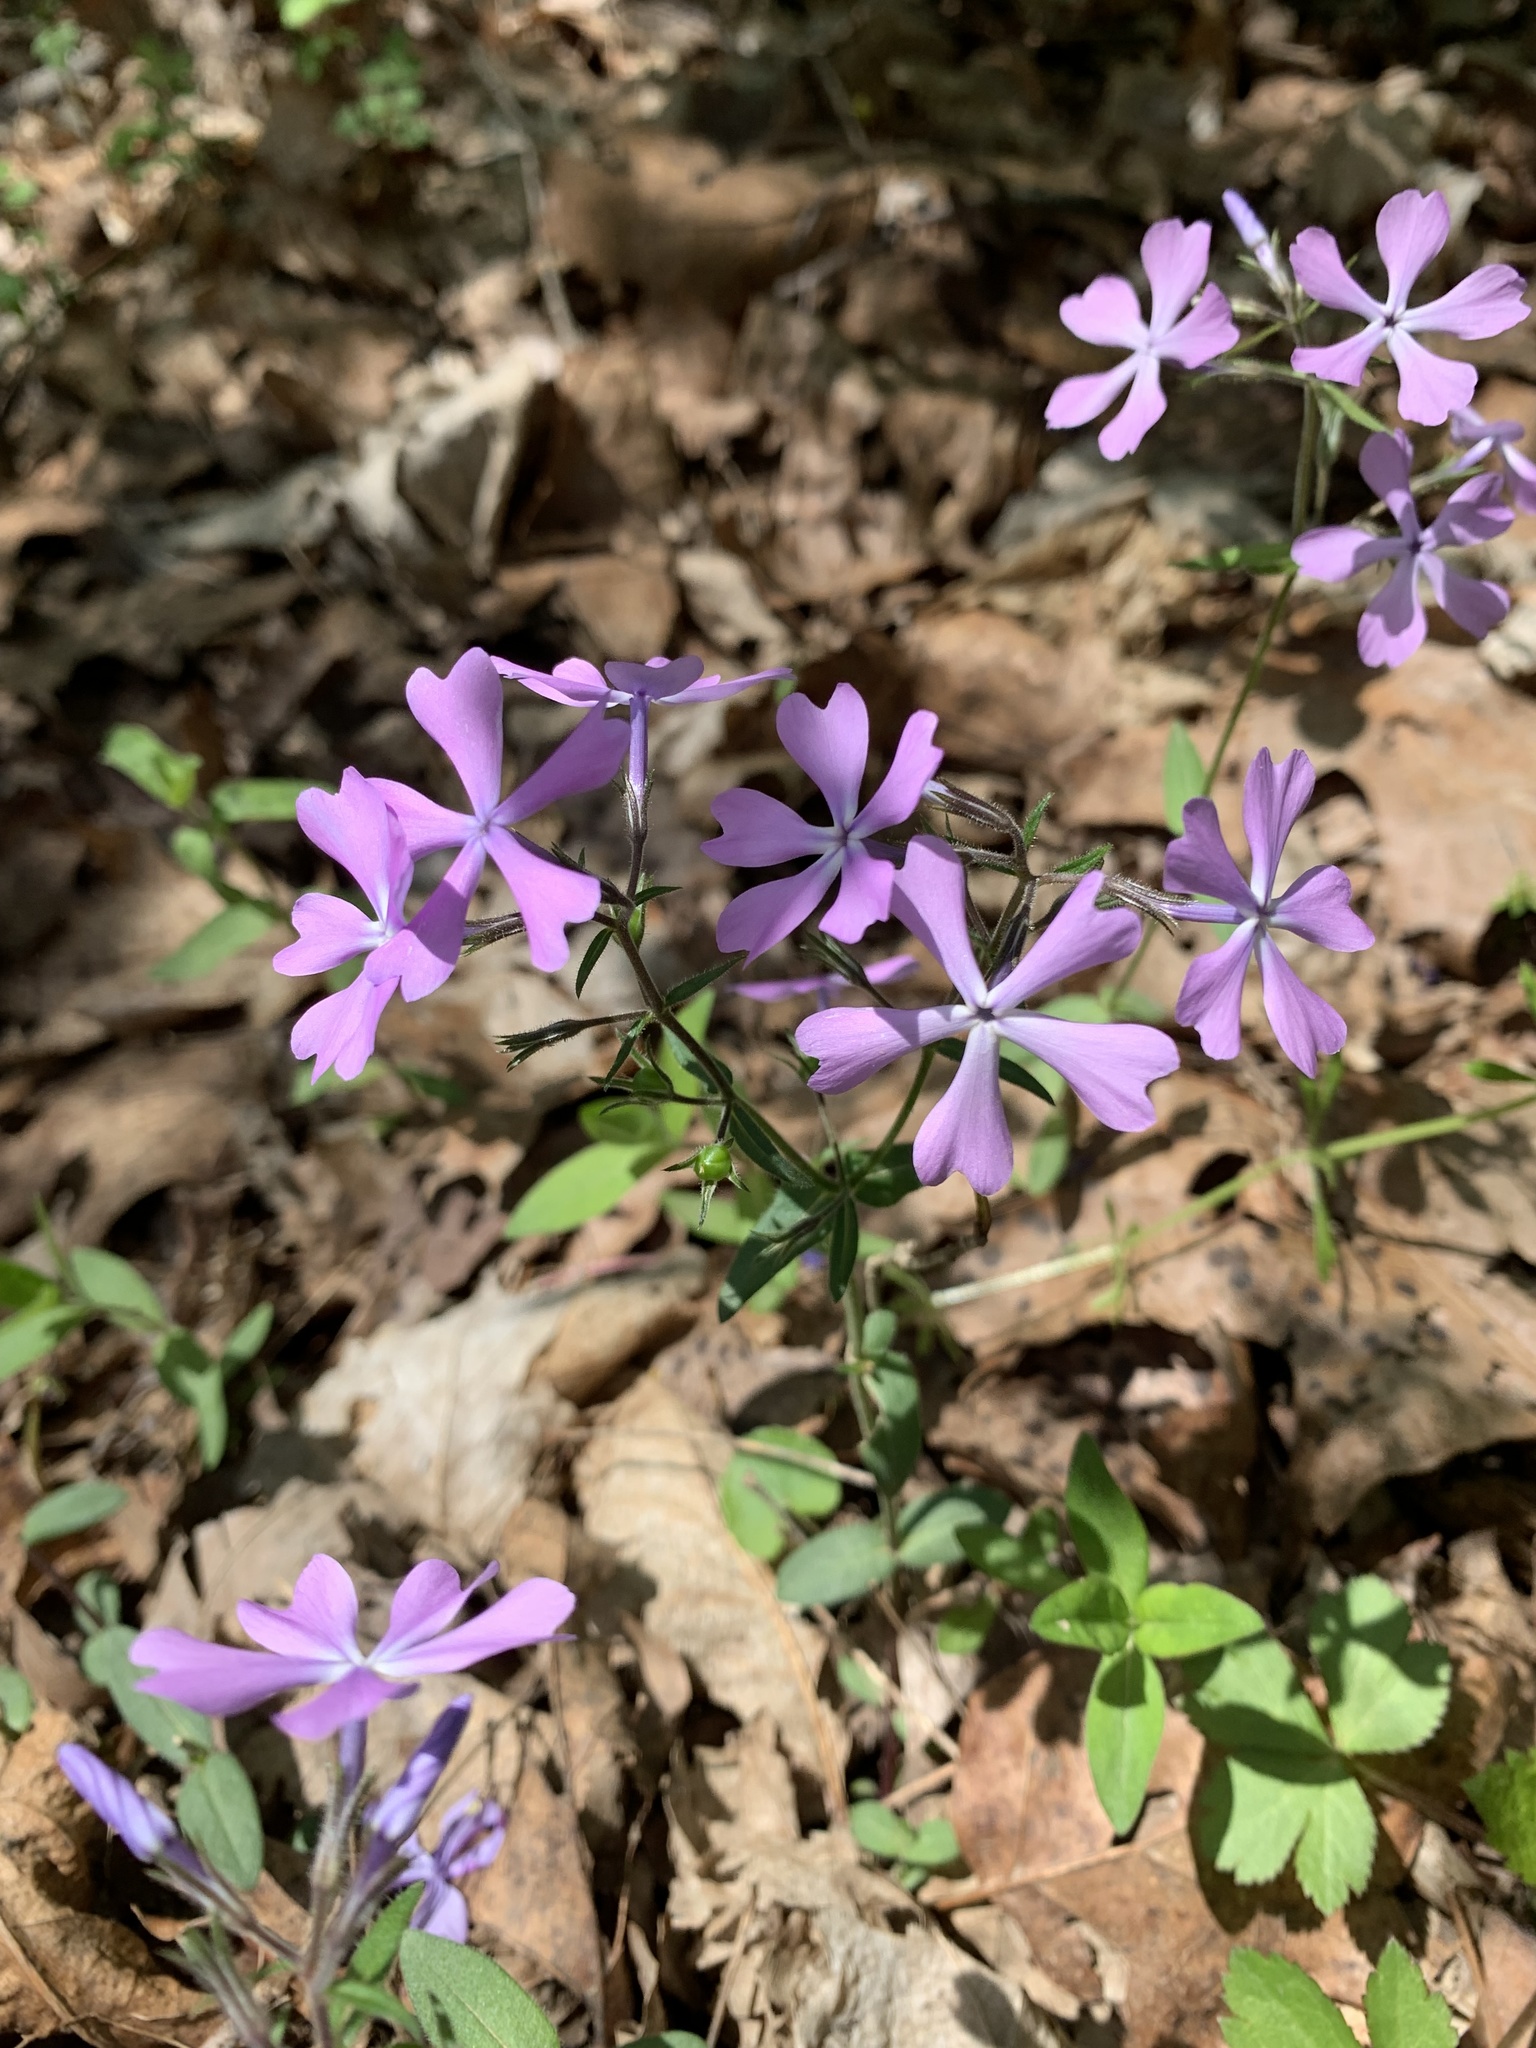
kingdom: Plantae
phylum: Tracheophyta
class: Magnoliopsida
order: Ericales
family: Polemoniaceae
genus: Phlox
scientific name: Phlox divaricata
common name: Blue phlox
